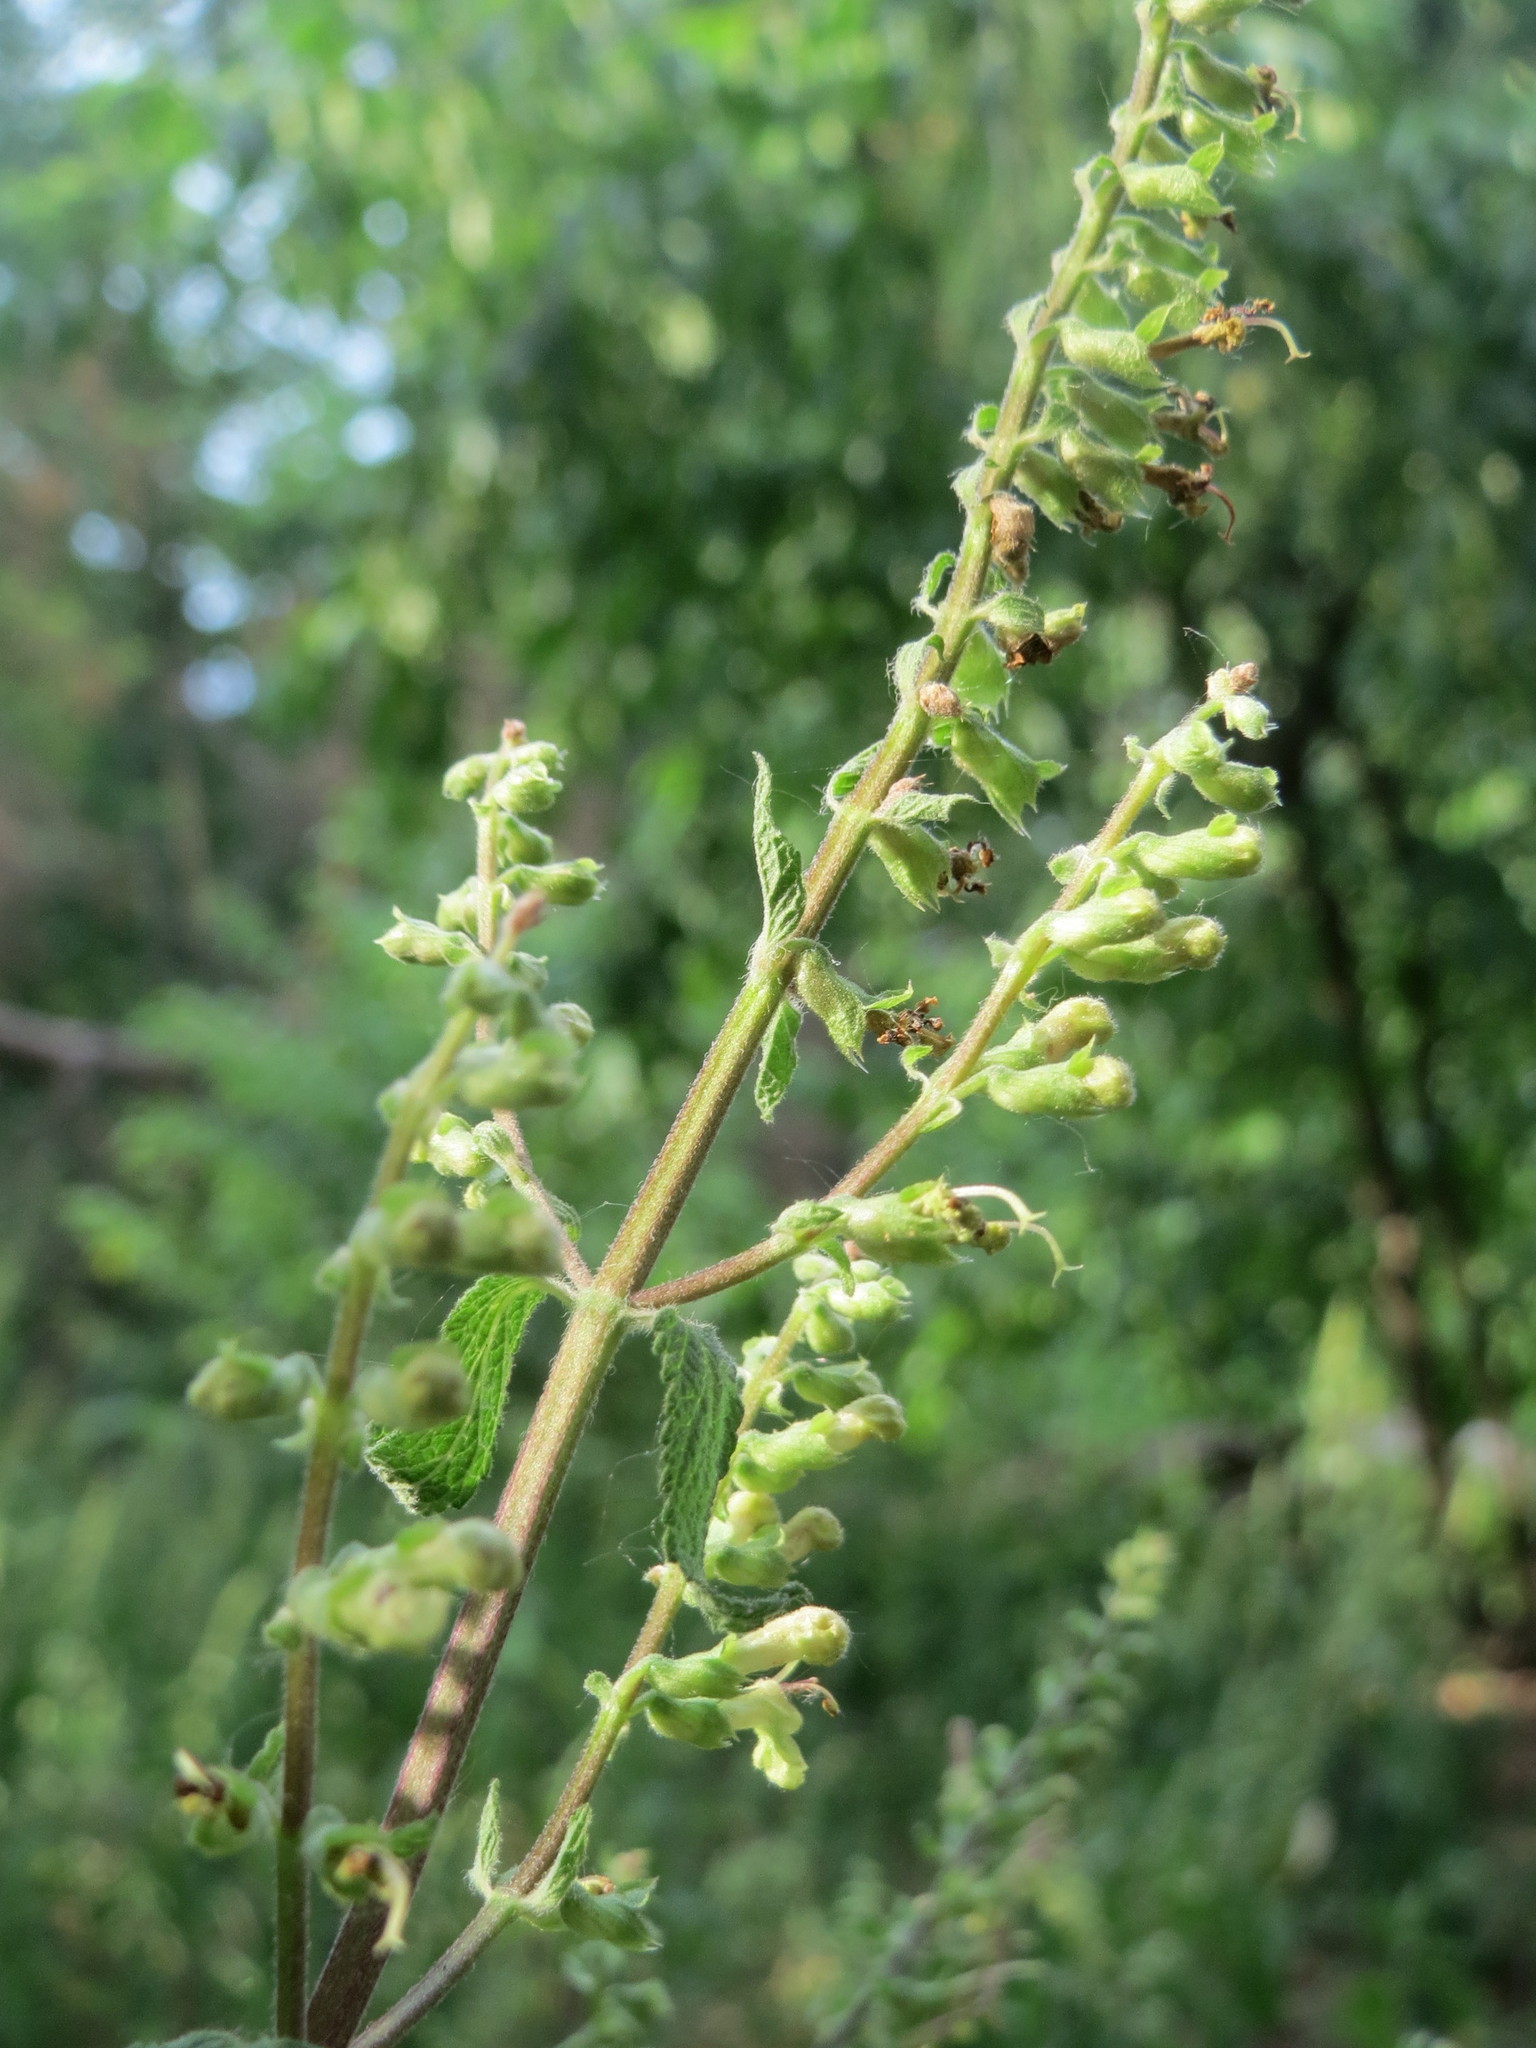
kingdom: Plantae
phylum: Tracheophyta
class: Magnoliopsida
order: Lamiales
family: Lamiaceae
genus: Teucrium
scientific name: Teucrium scorodonia
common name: Woodland germander
